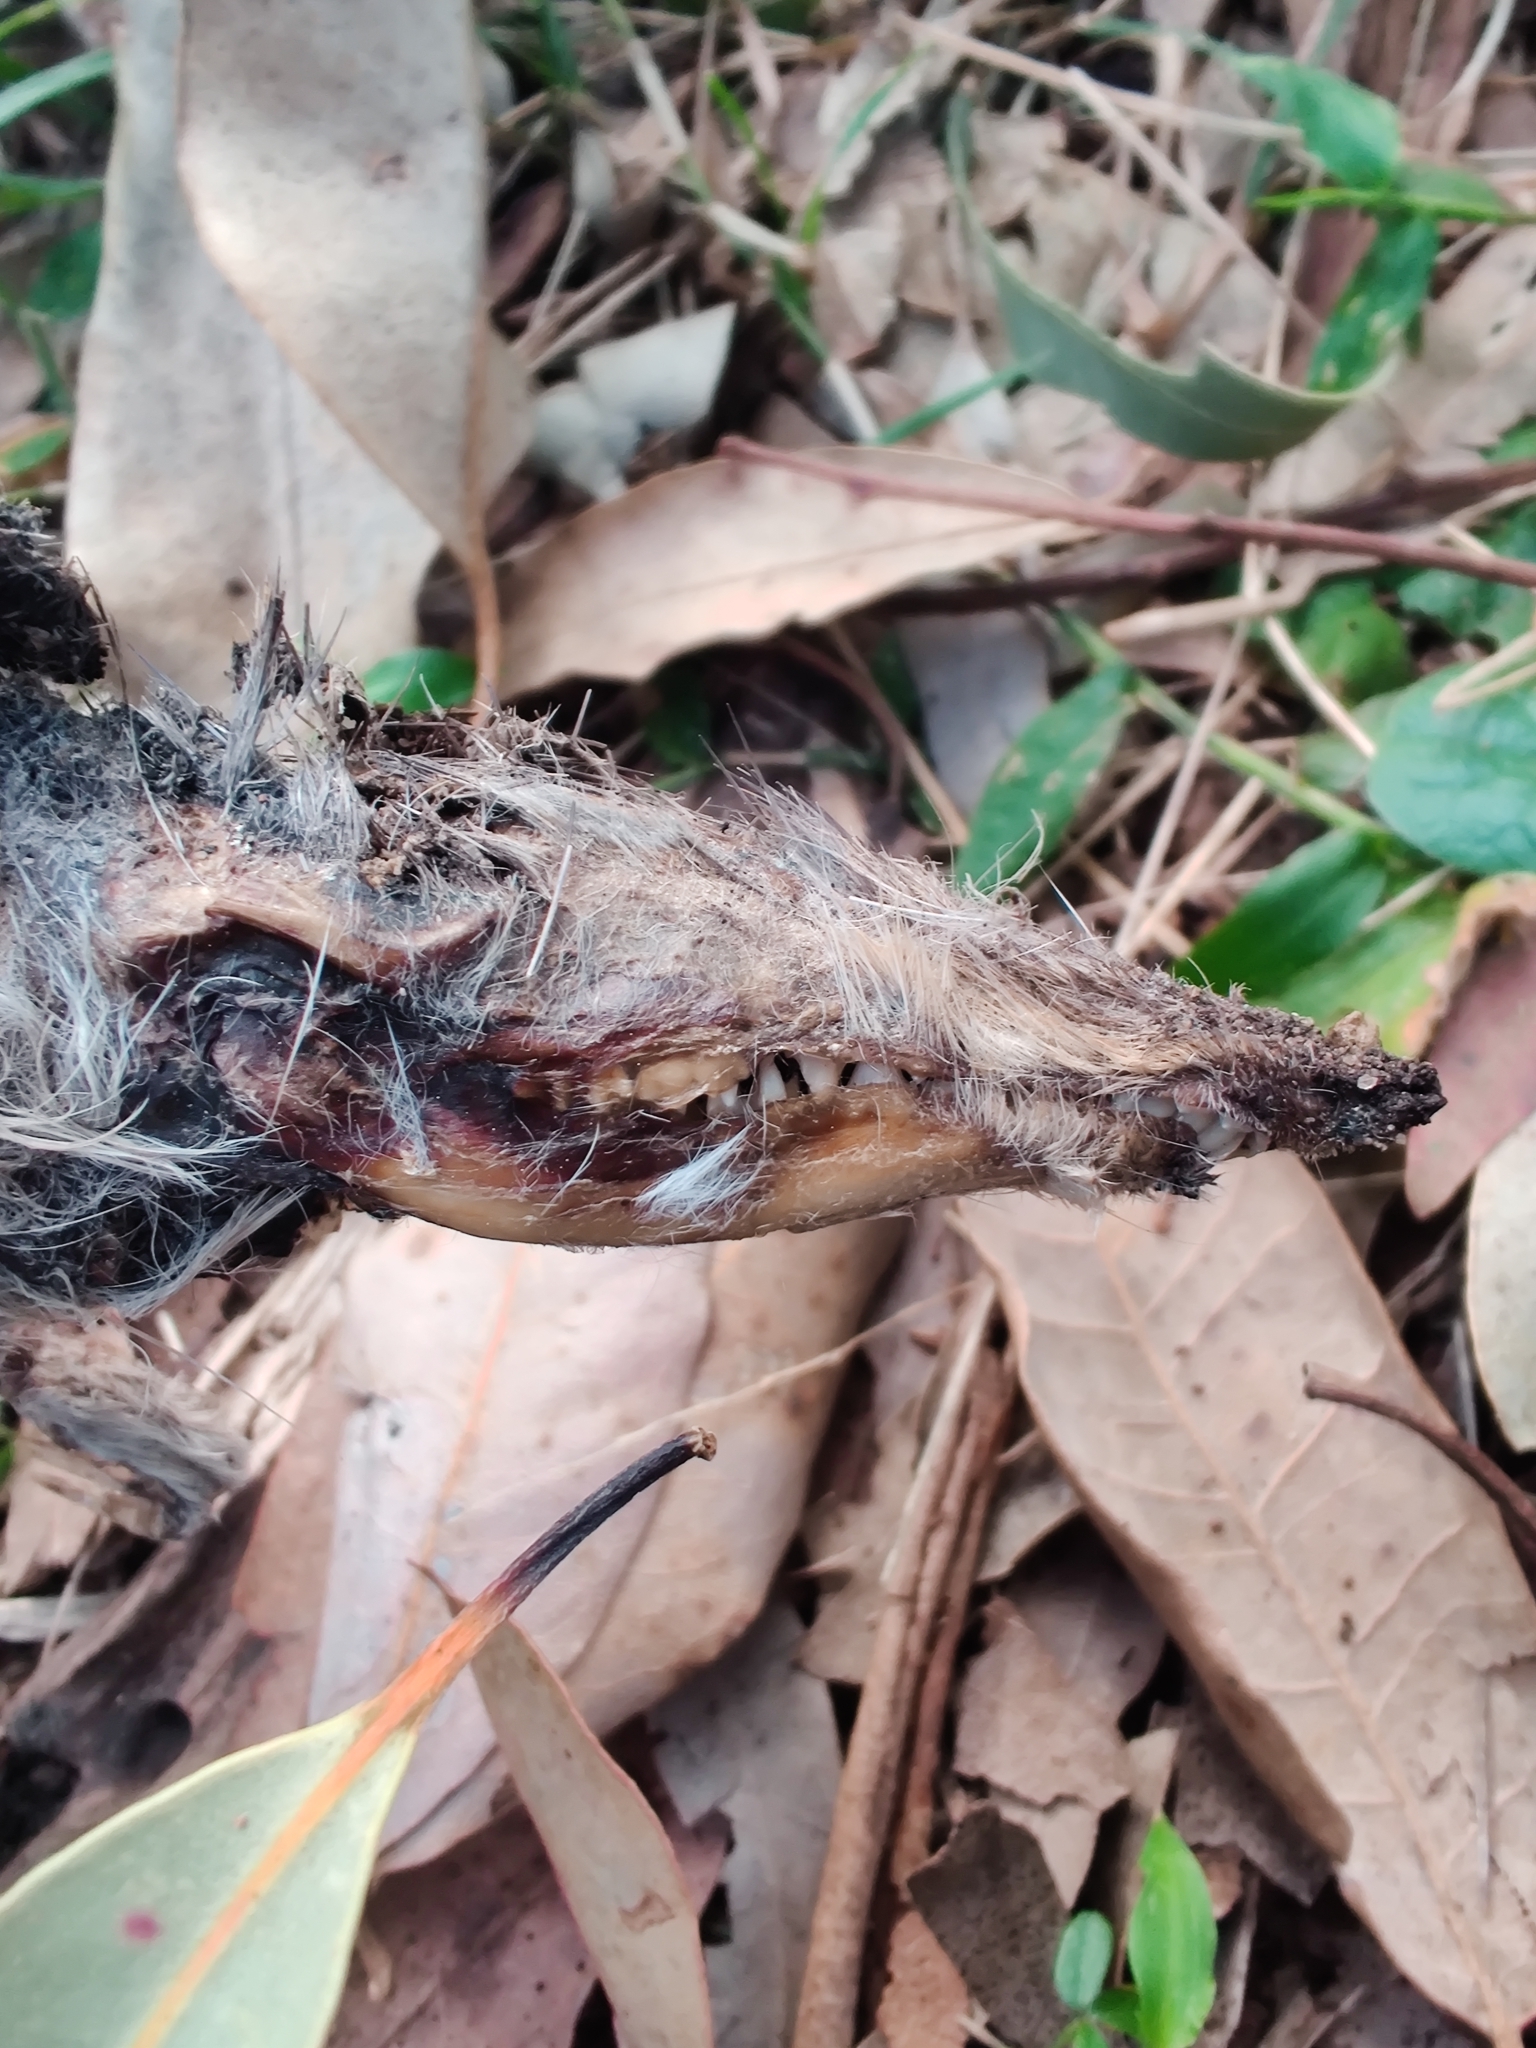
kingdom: Animalia
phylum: Chordata
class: Mammalia
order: Peramelemorphia
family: Peramelidae
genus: Perameles
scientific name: Perameles nasuta
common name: Long-nosed bandicoot
